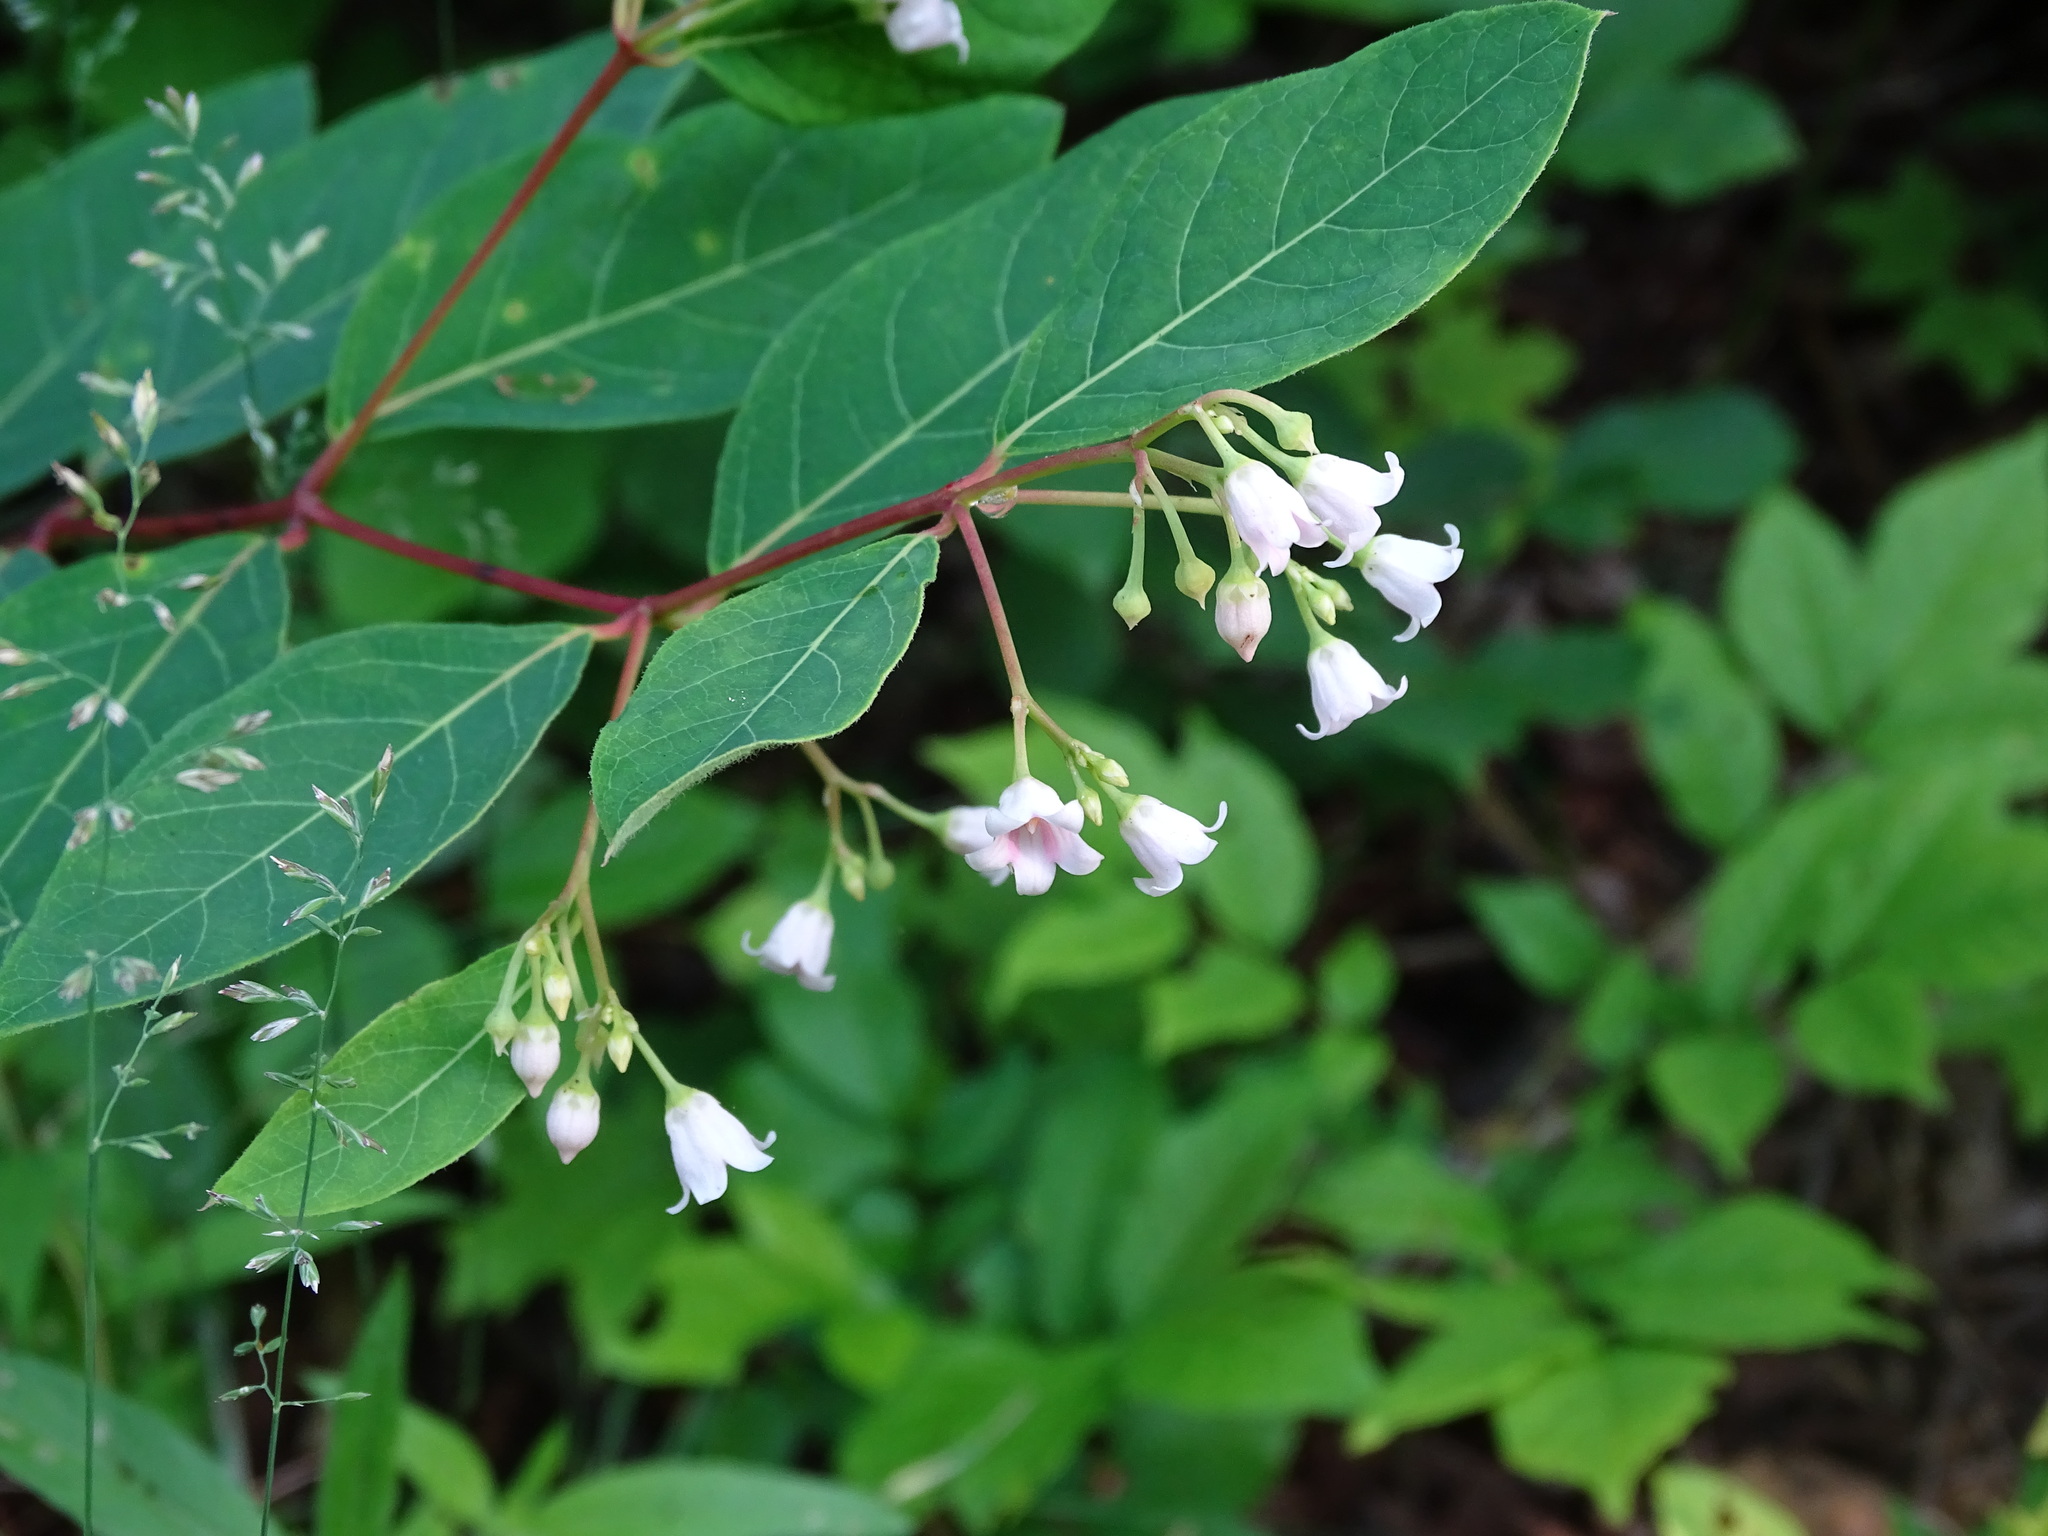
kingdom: Plantae
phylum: Tracheophyta
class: Magnoliopsida
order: Gentianales
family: Apocynaceae
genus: Apocynum
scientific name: Apocynum androsaemifolium
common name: Spreading dogbane
